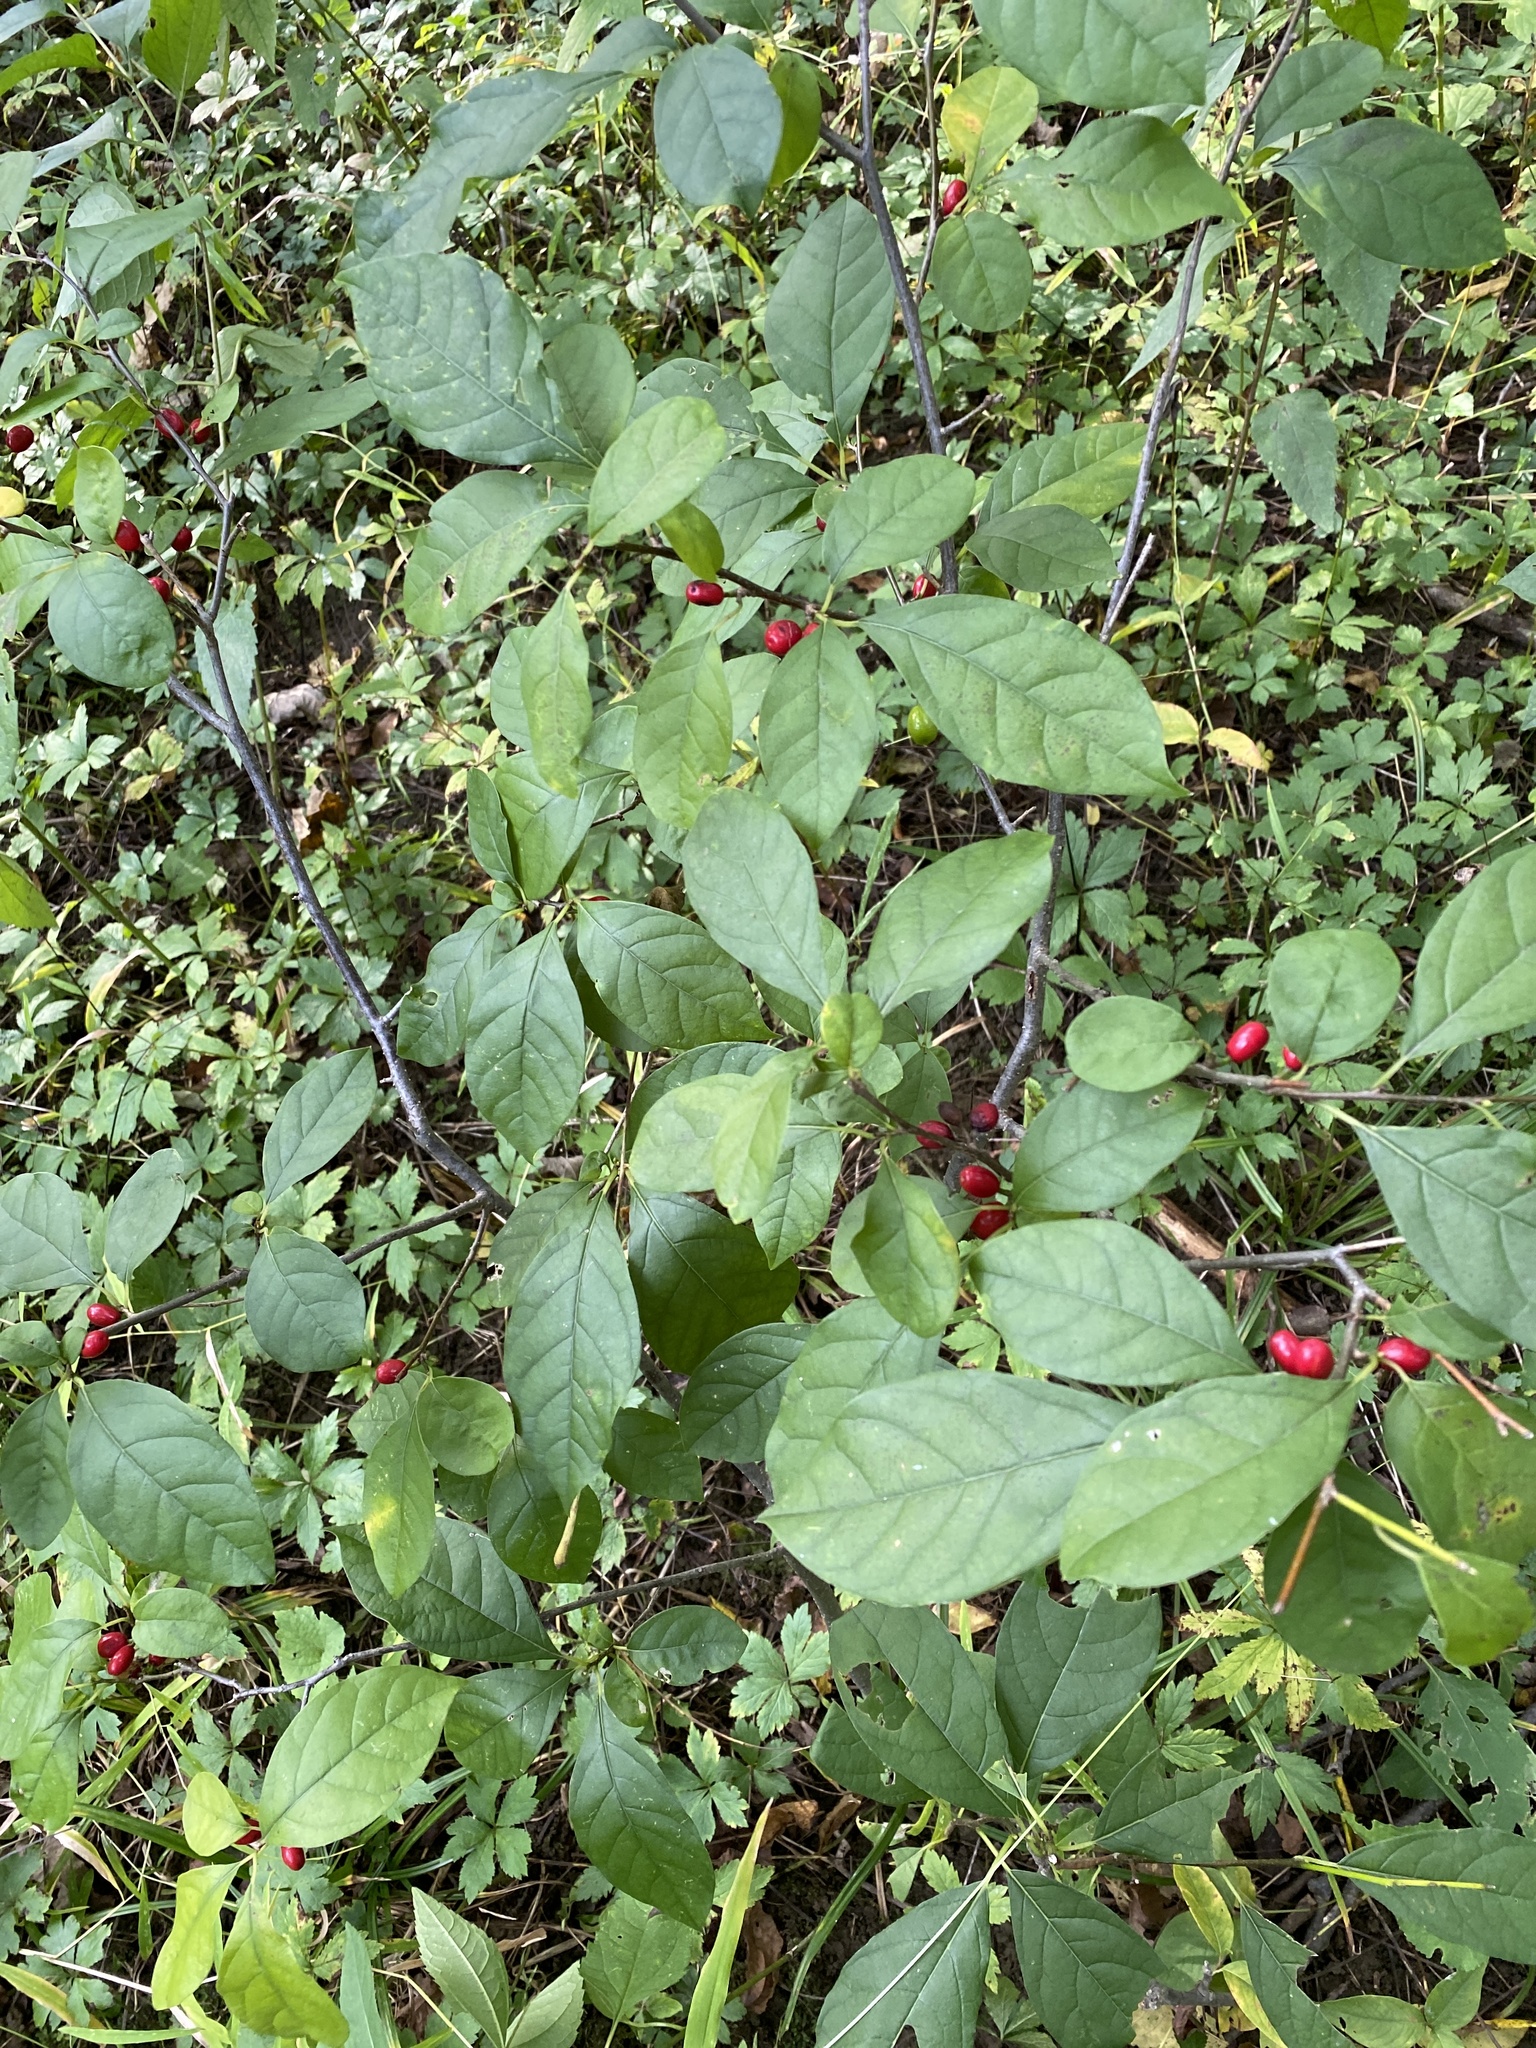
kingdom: Plantae
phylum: Tracheophyta
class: Magnoliopsida
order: Laurales
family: Lauraceae
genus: Lindera
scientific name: Lindera benzoin
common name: Spicebush
